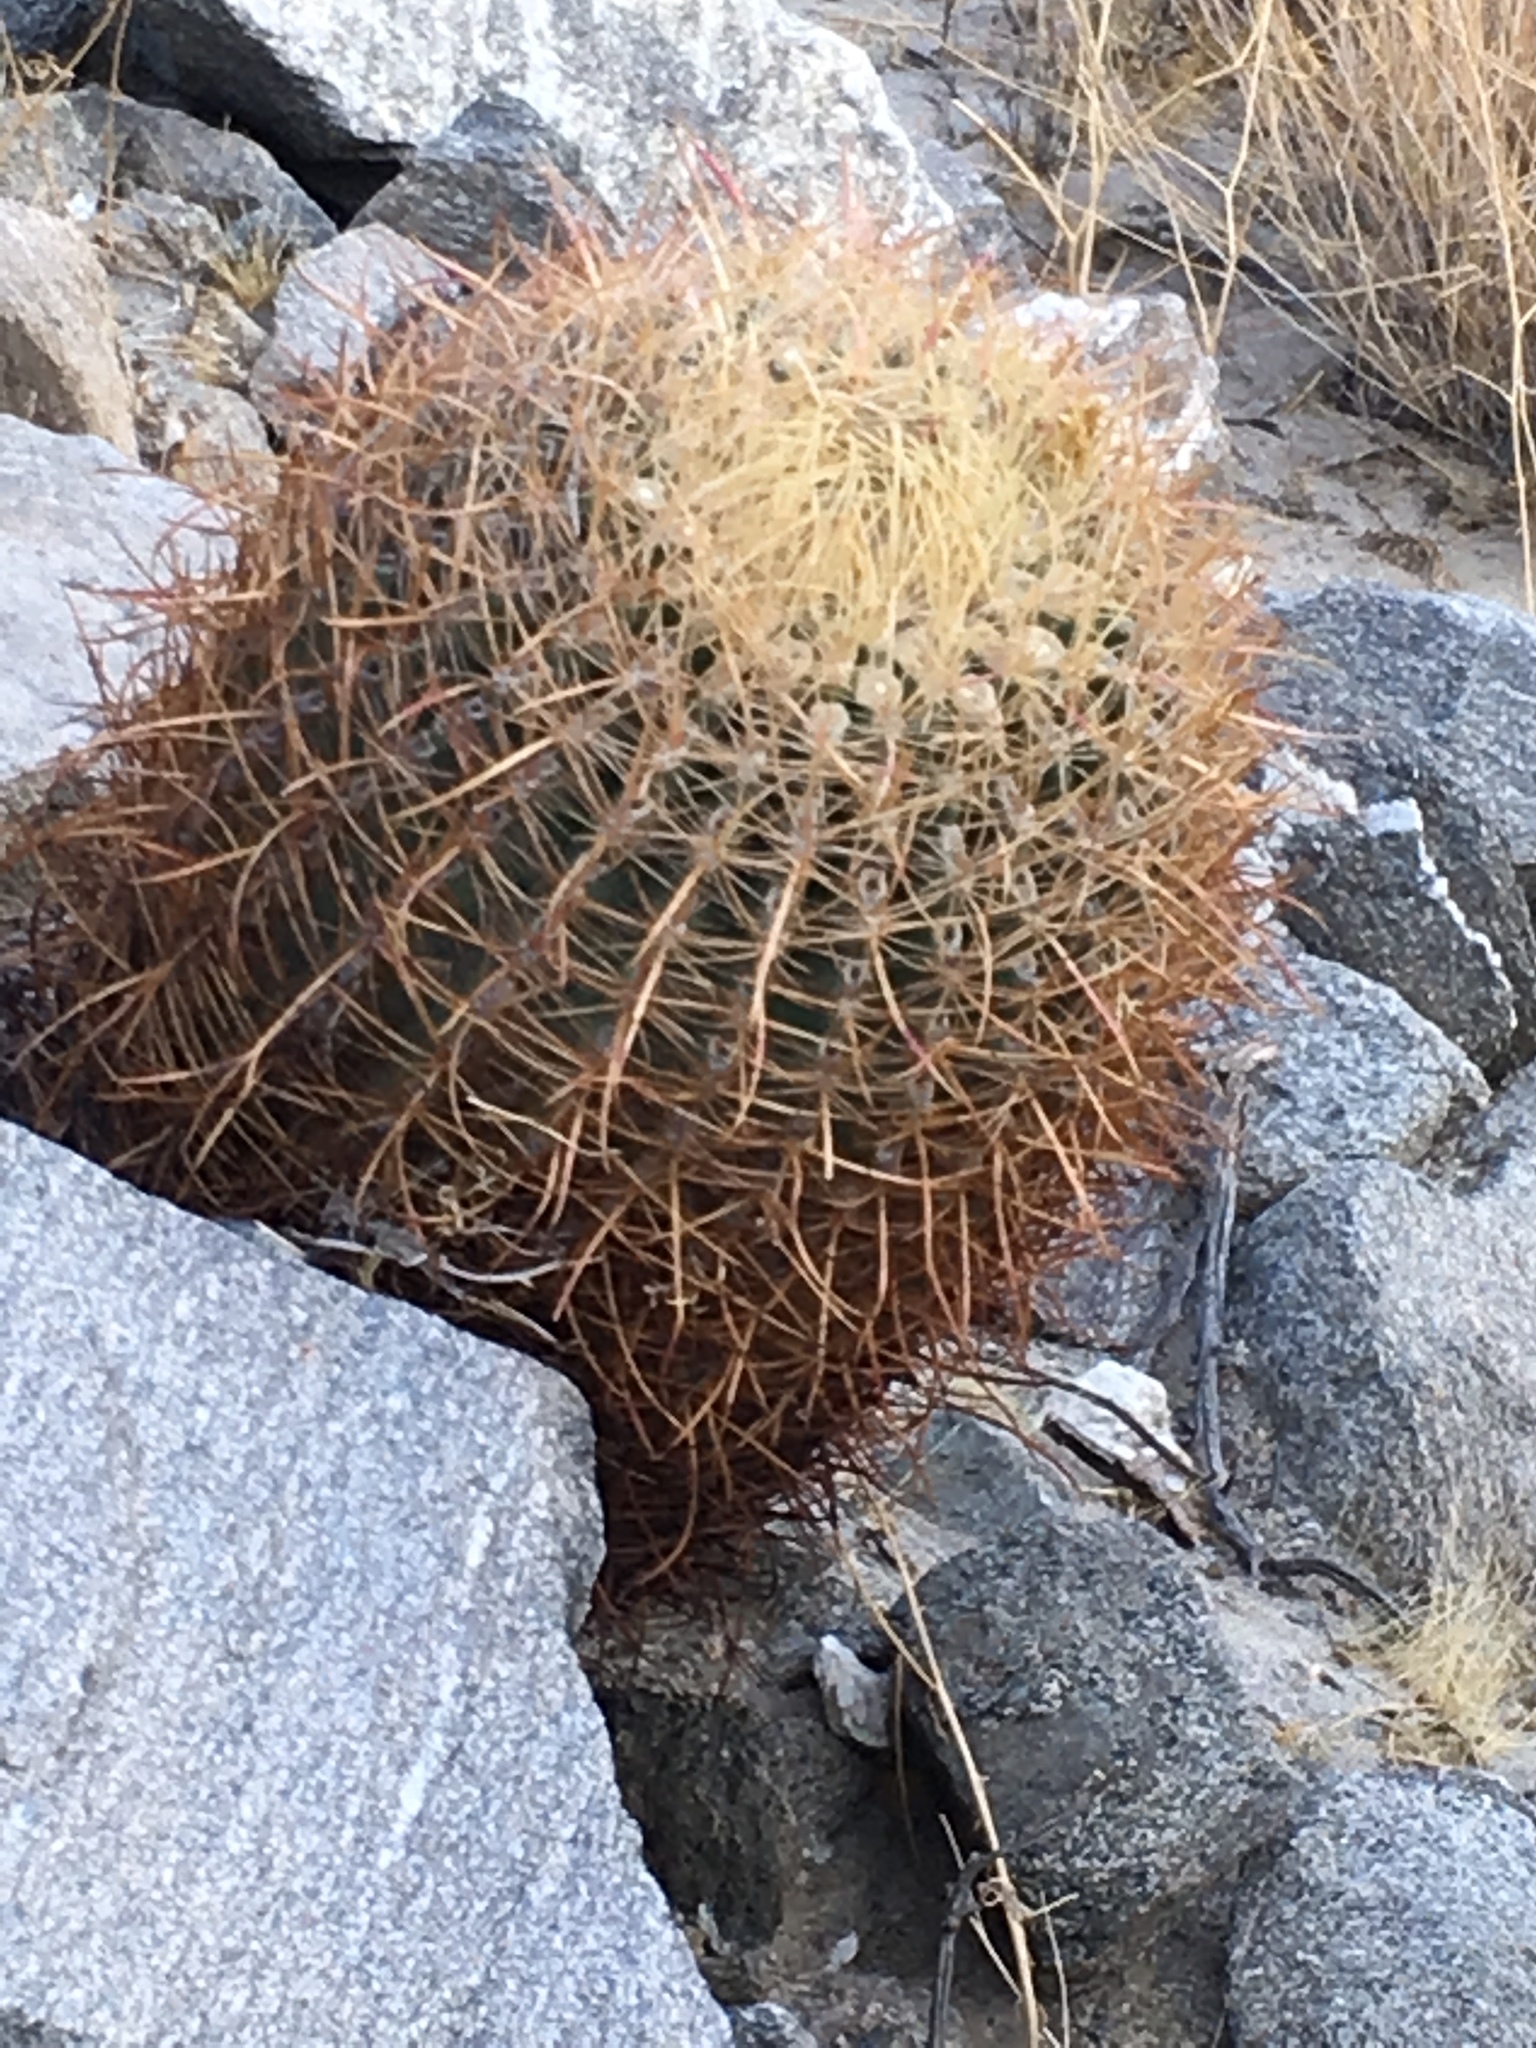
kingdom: Plantae
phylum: Tracheophyta
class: Magnoliopsida
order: Caryophyllales
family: Cactaceae
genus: Ferocactus
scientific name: Ferocactus cylindraceus
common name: California barrel cactus
